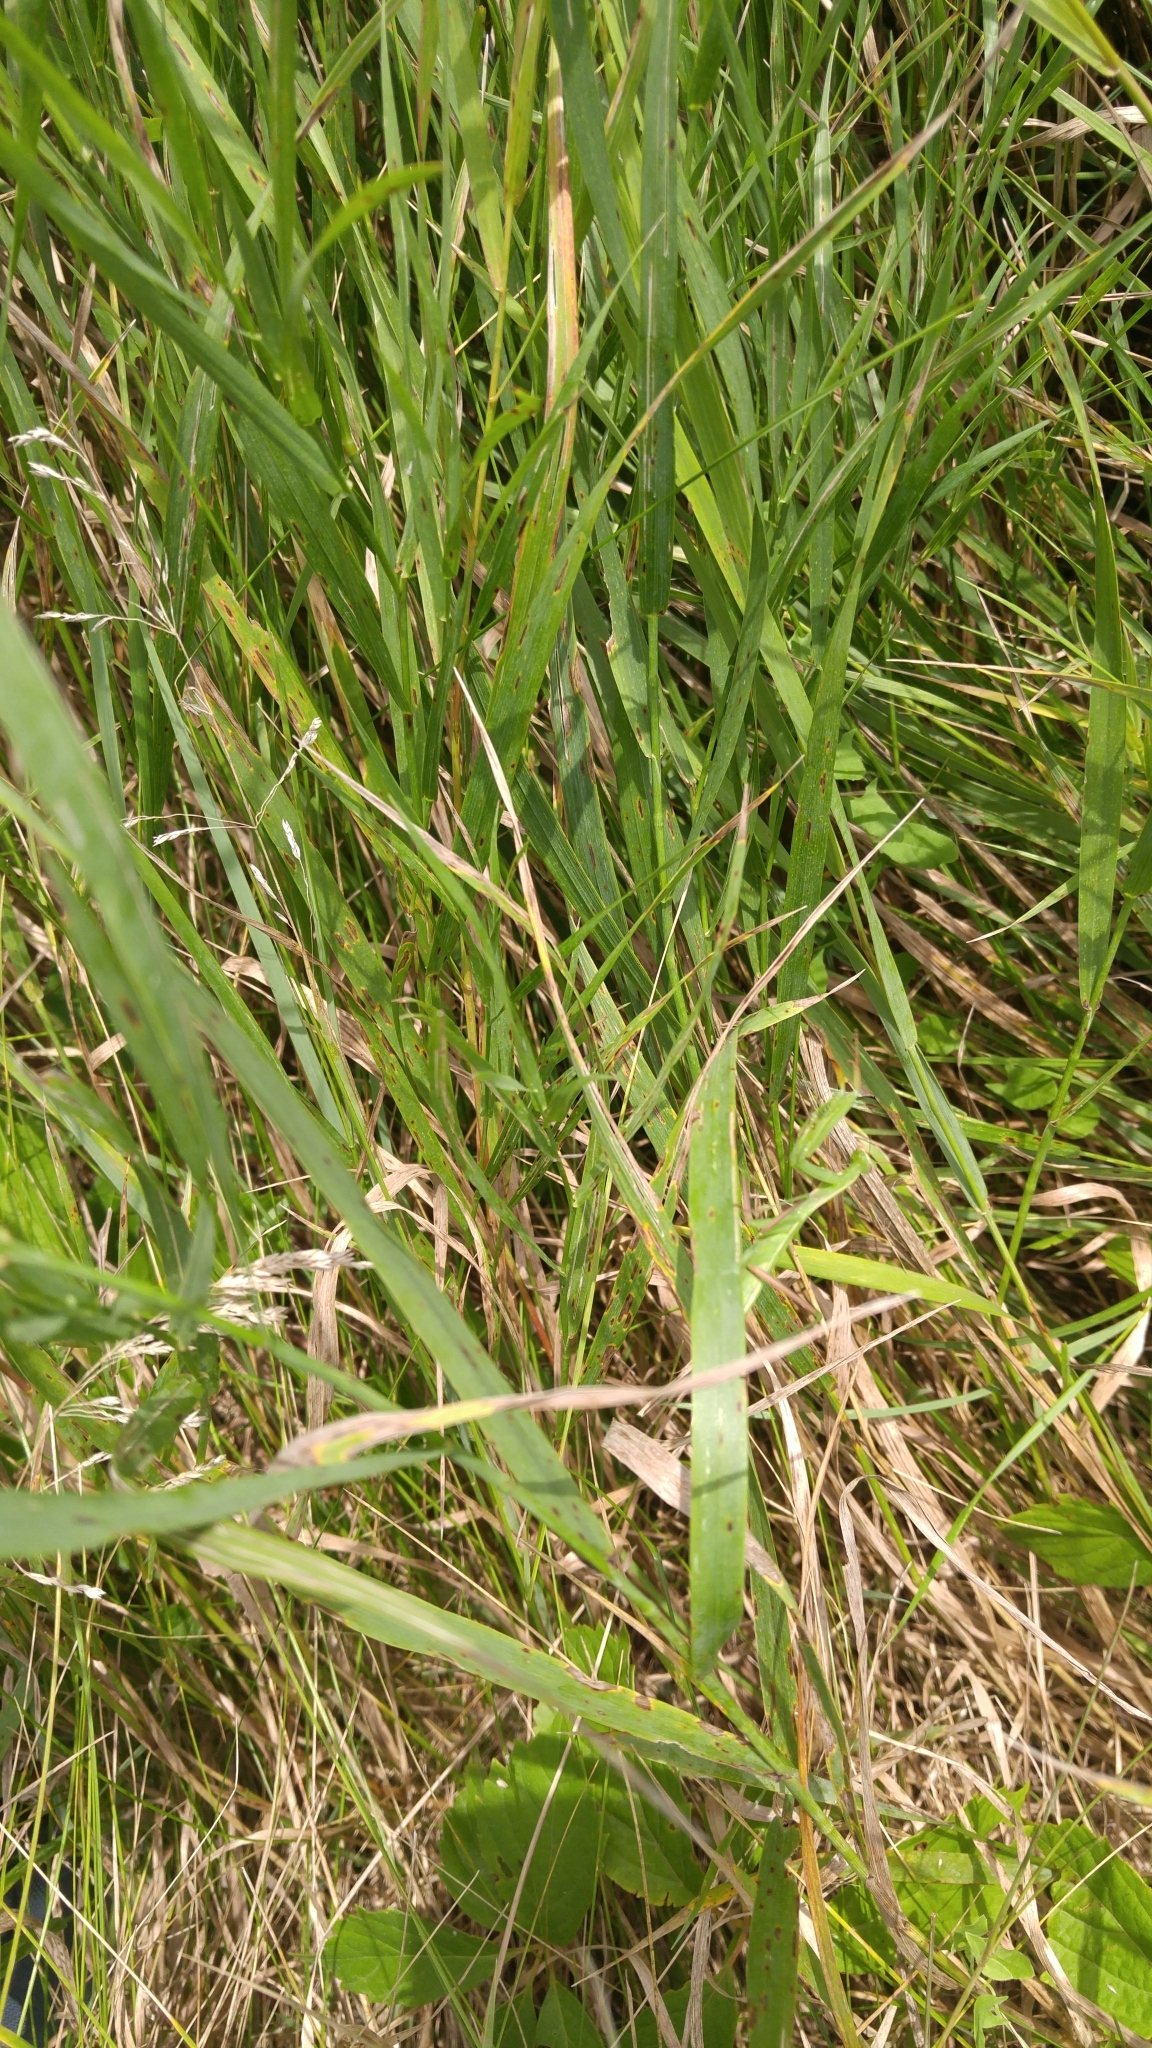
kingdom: Animalia
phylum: Arthropoda
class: Insecta
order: Mantodea
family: Mantidae
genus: Mantis
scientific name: Mantis religiosa
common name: Praying mantis
